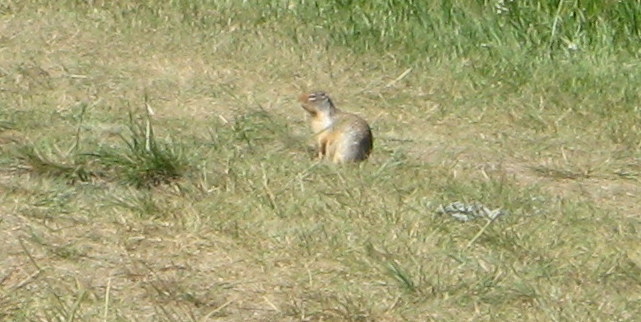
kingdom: Animalia
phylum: Chordata
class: Mammalia
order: Rodentia
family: Sciuridae
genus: Urocitellus
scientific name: Urocitellus columbianus
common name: Columbian ground squirrel
